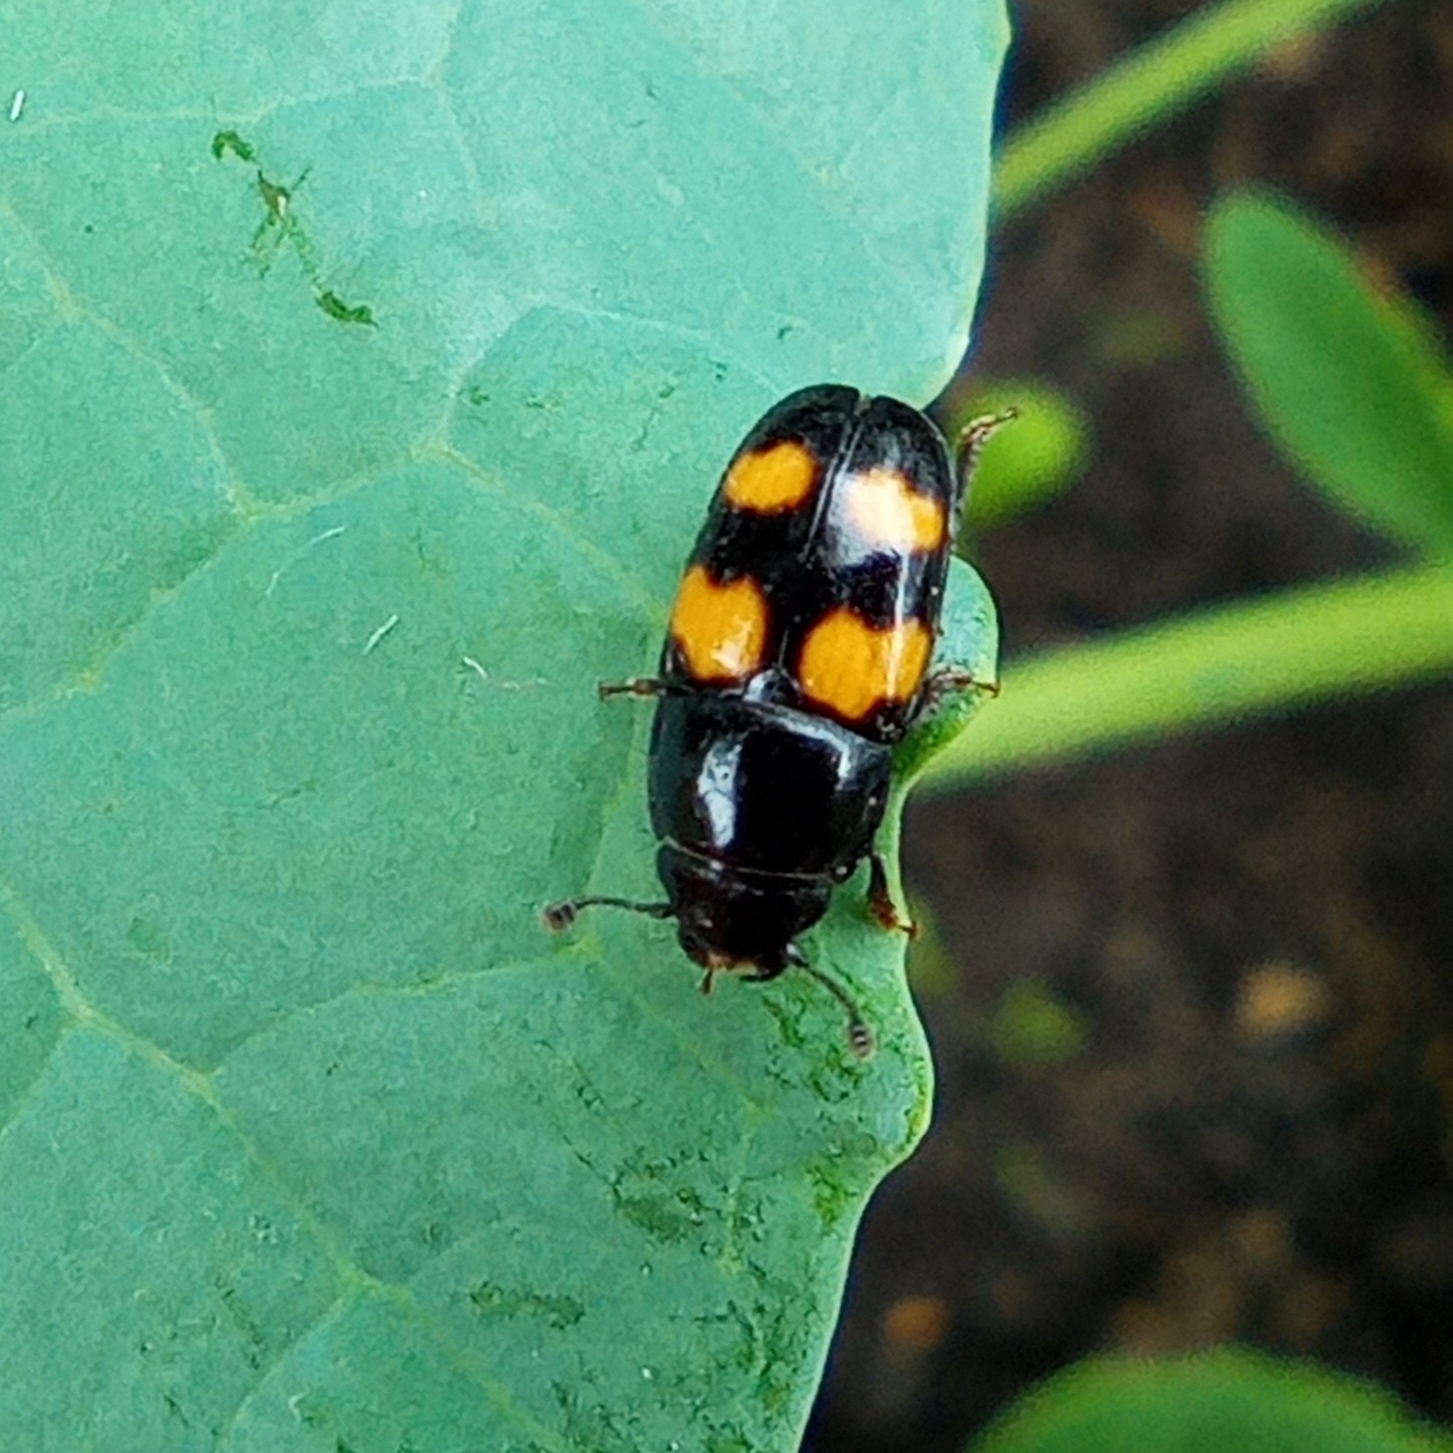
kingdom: Animalia
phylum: Arthropoda
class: Insecta
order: Coleoptera
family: Nitidulidae
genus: Glischrochilus
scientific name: Glischrochilus grandis
